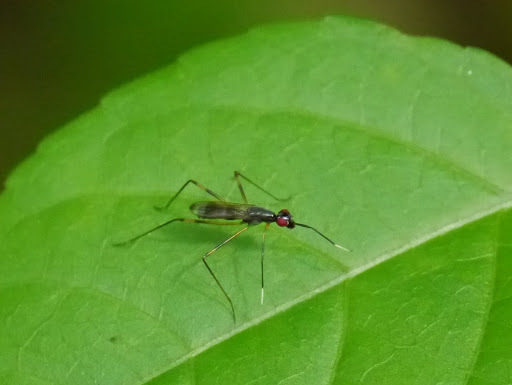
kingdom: Animalia
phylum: Arthropoda
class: Insecta
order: Diptera
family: Micropezidae
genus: Rainieria
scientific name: Rainieria antennaepes
